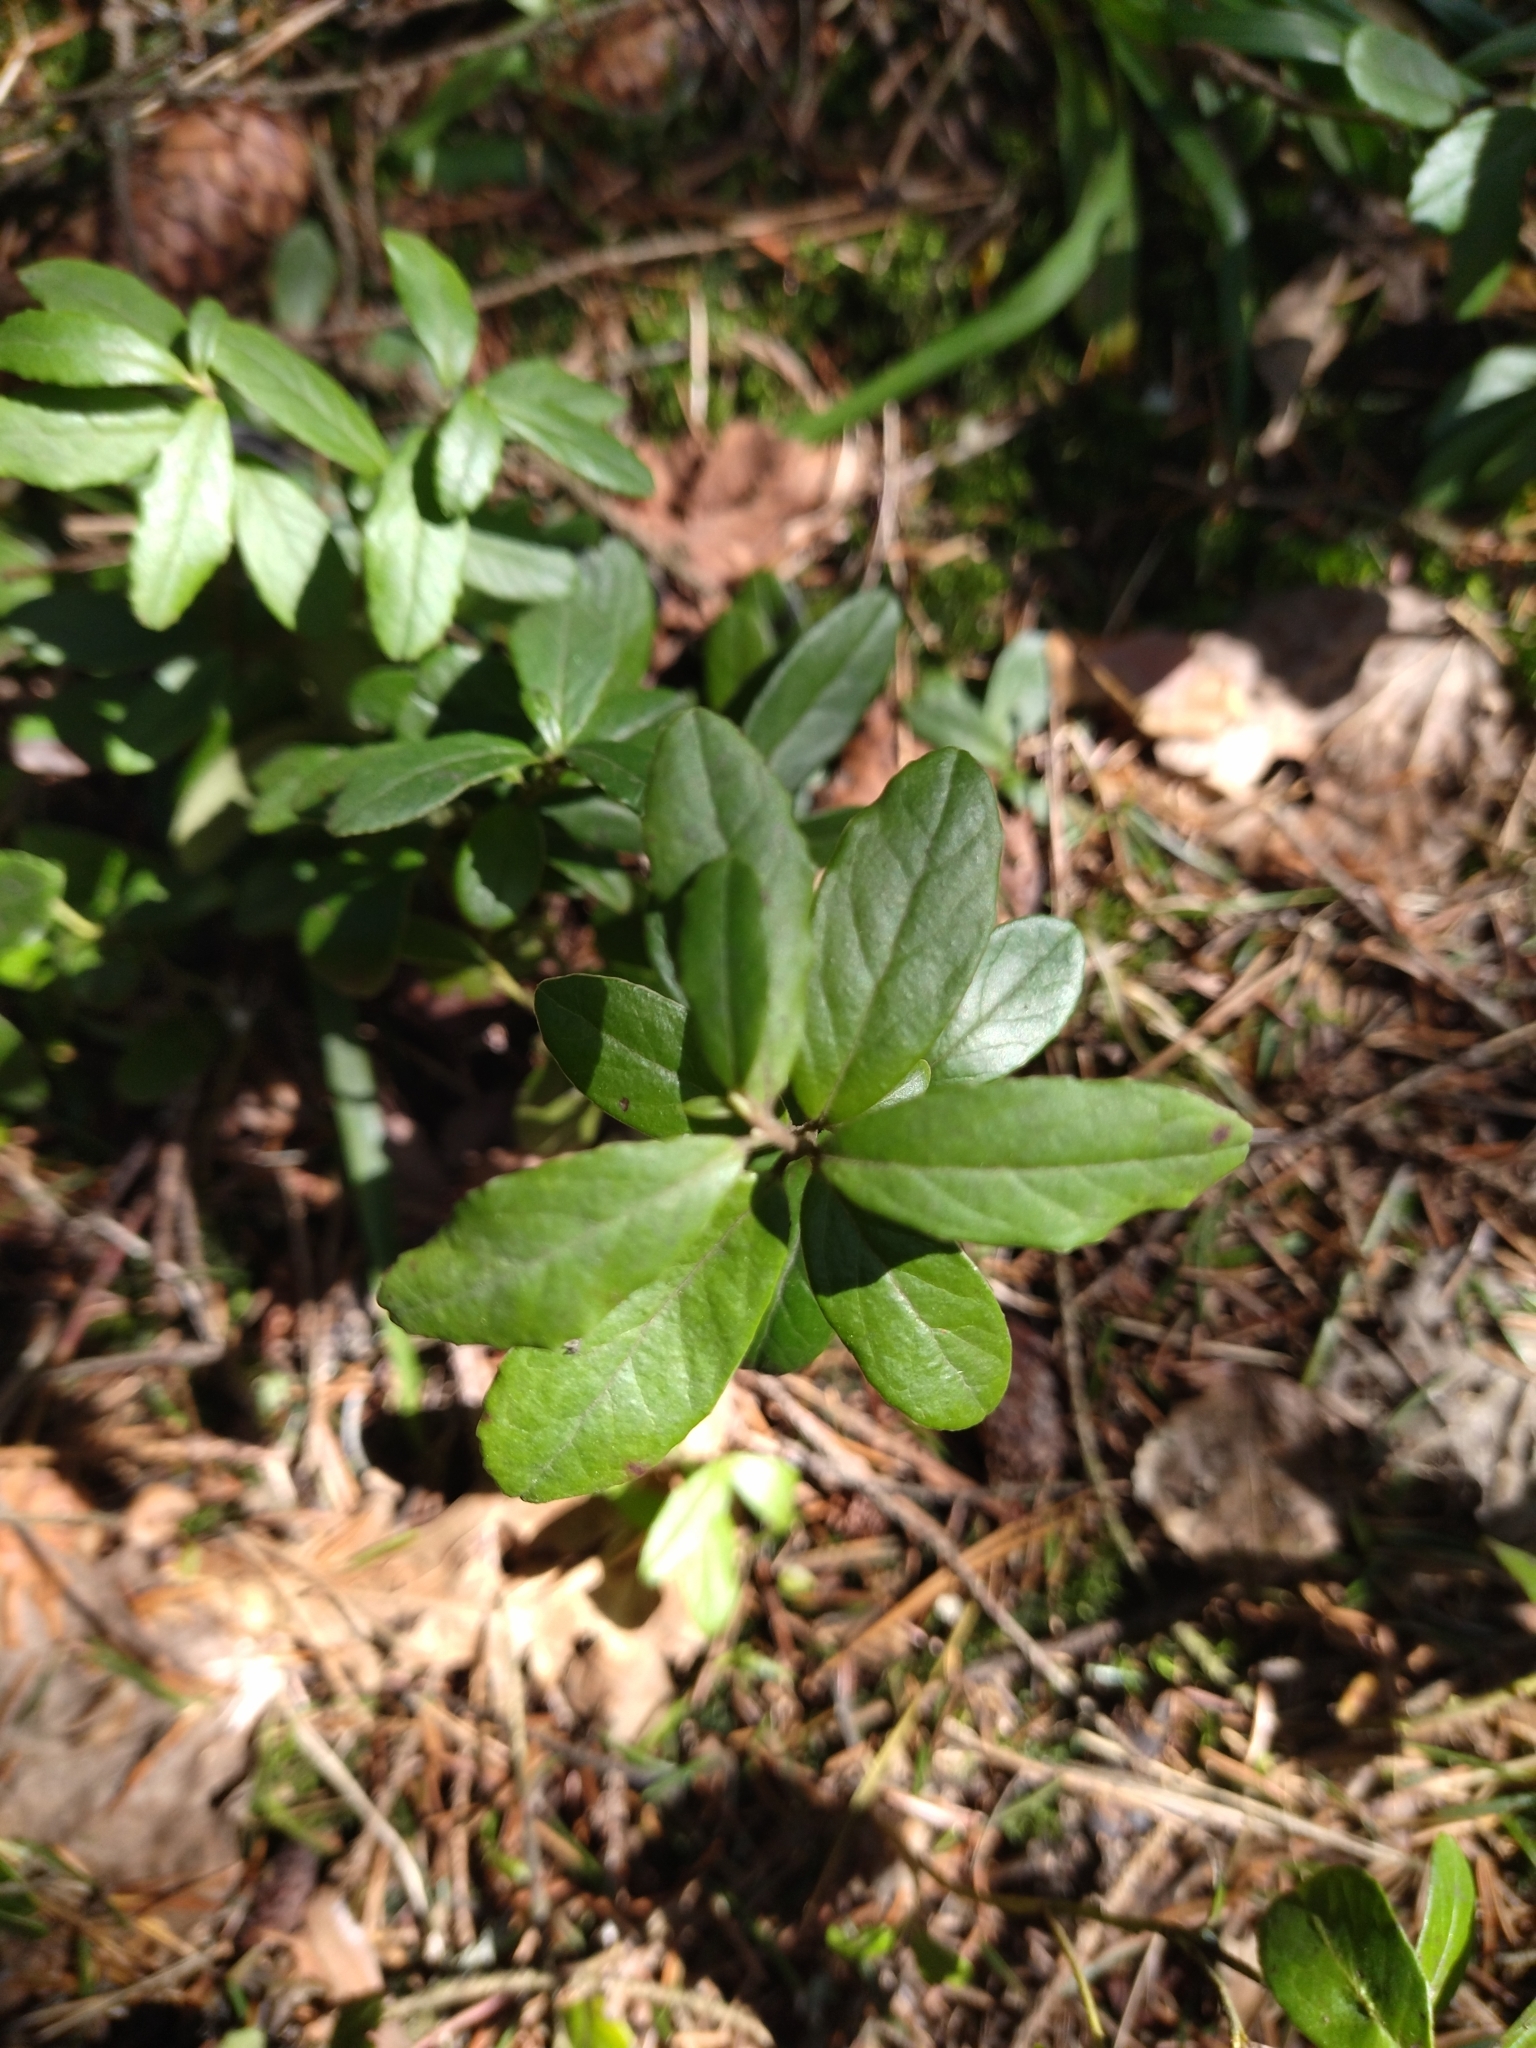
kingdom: Plantae
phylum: Tracheophyta
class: Magnoliopsida
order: Ericales
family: Ericaceae
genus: Vaccinium
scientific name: Vaccinium vitis-idaea
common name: Cowberry
